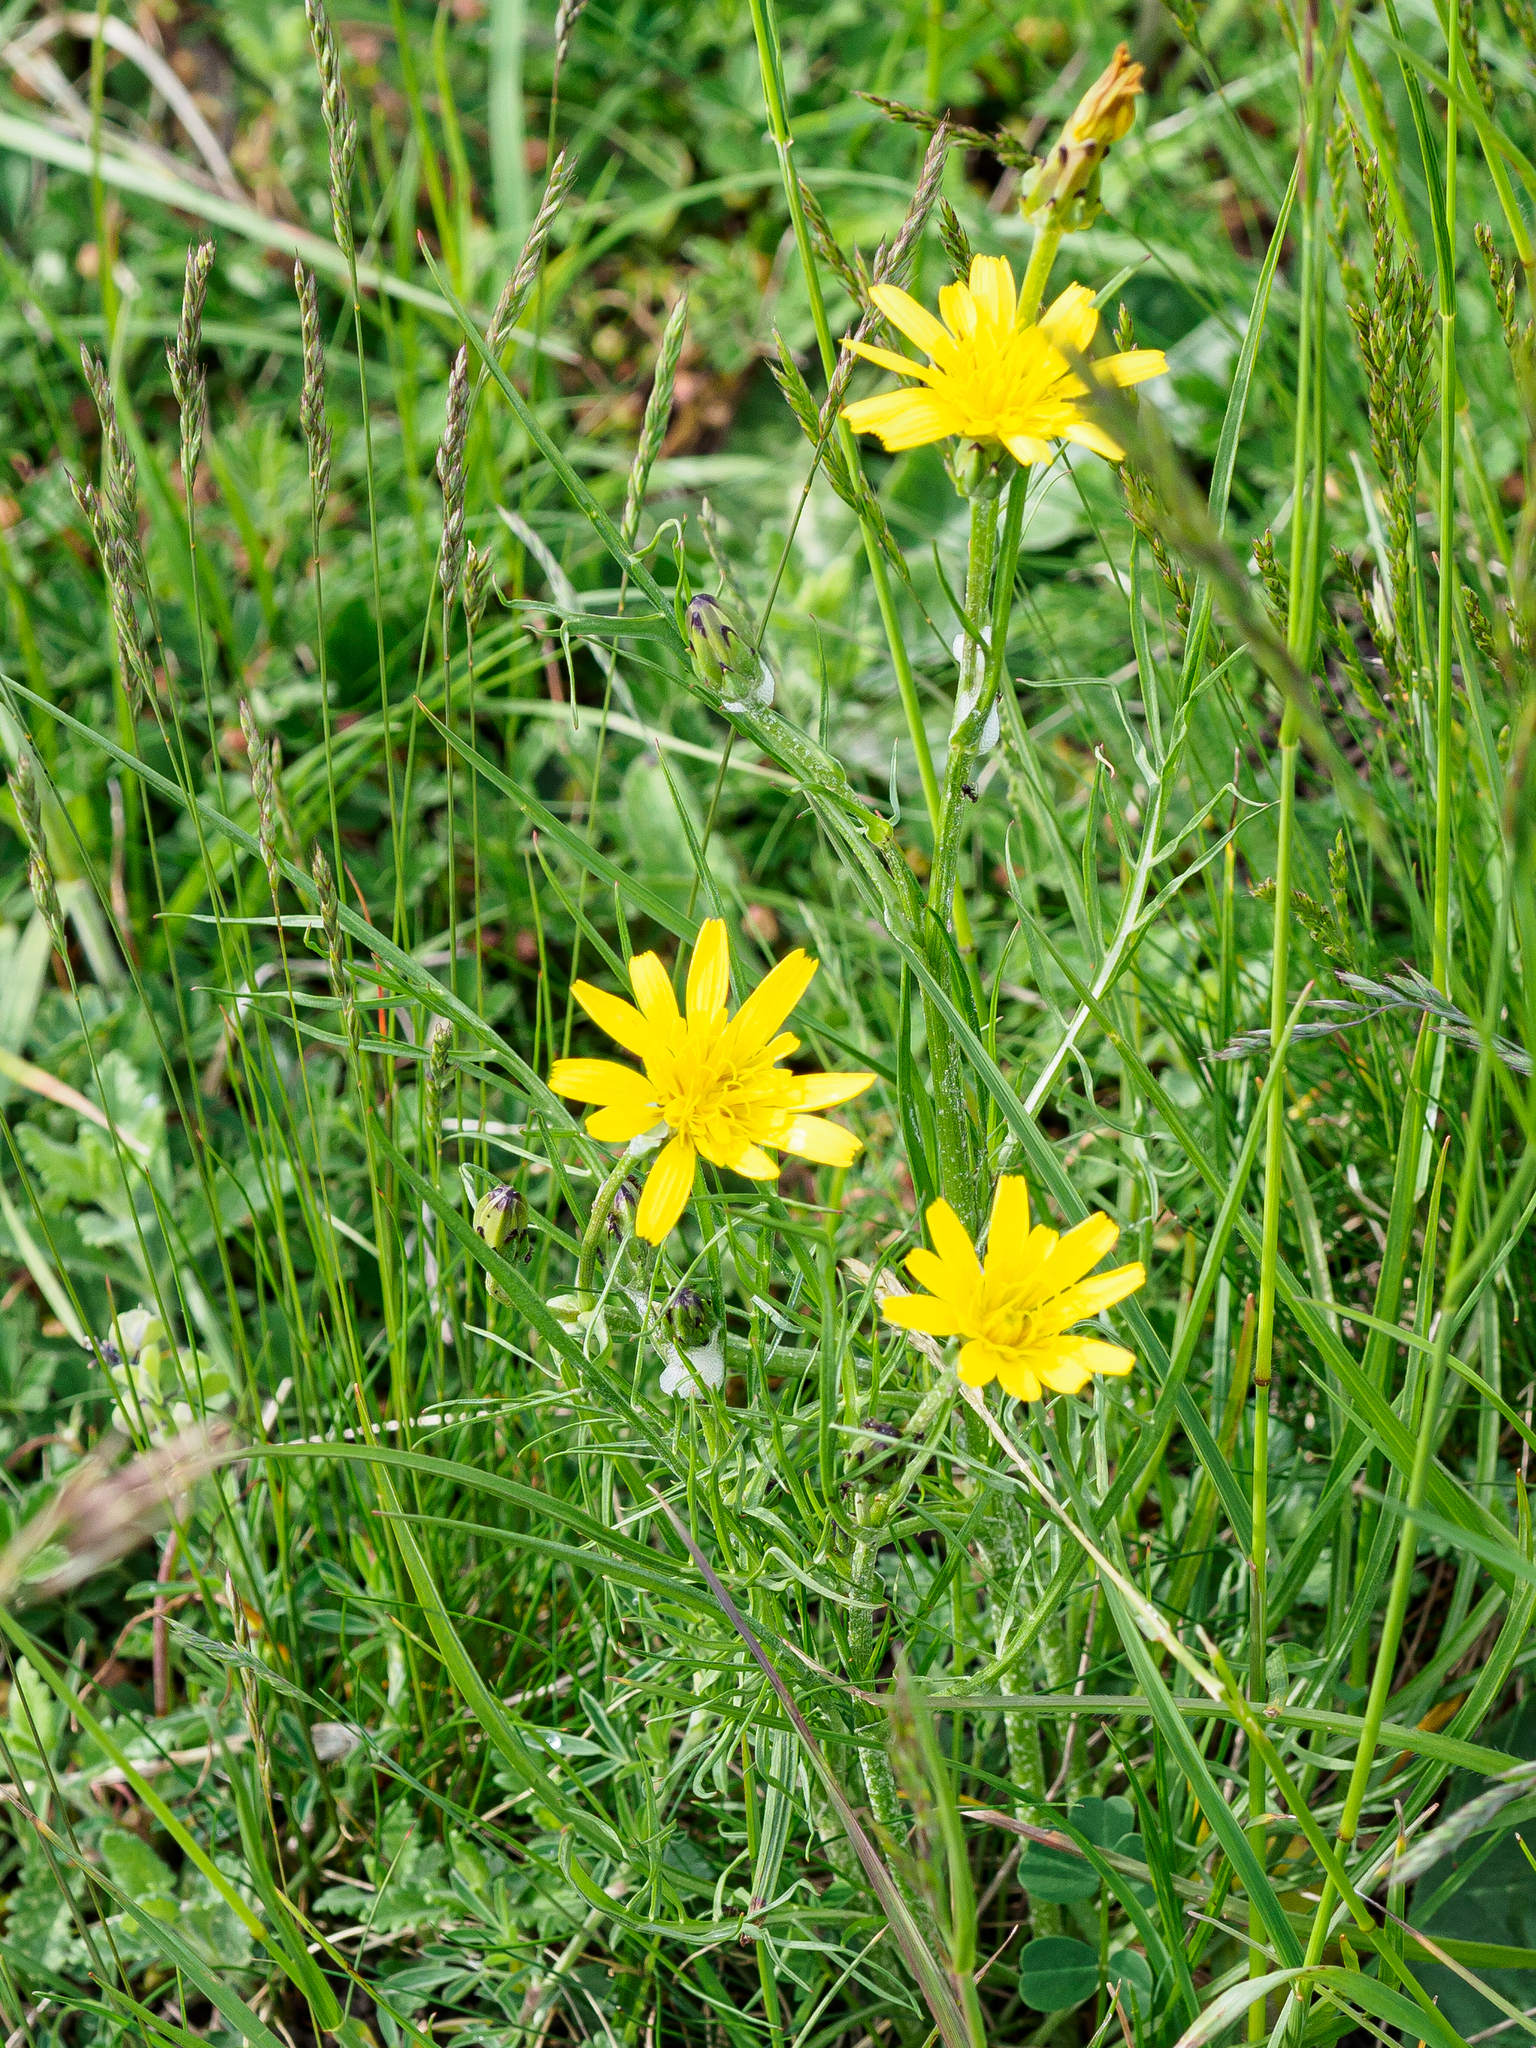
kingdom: Plantae
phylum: Tracheophyta
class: Magnoliopsida
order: Asterales
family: Asteraceae
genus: Scorzonera
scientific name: Scorzonera cana
